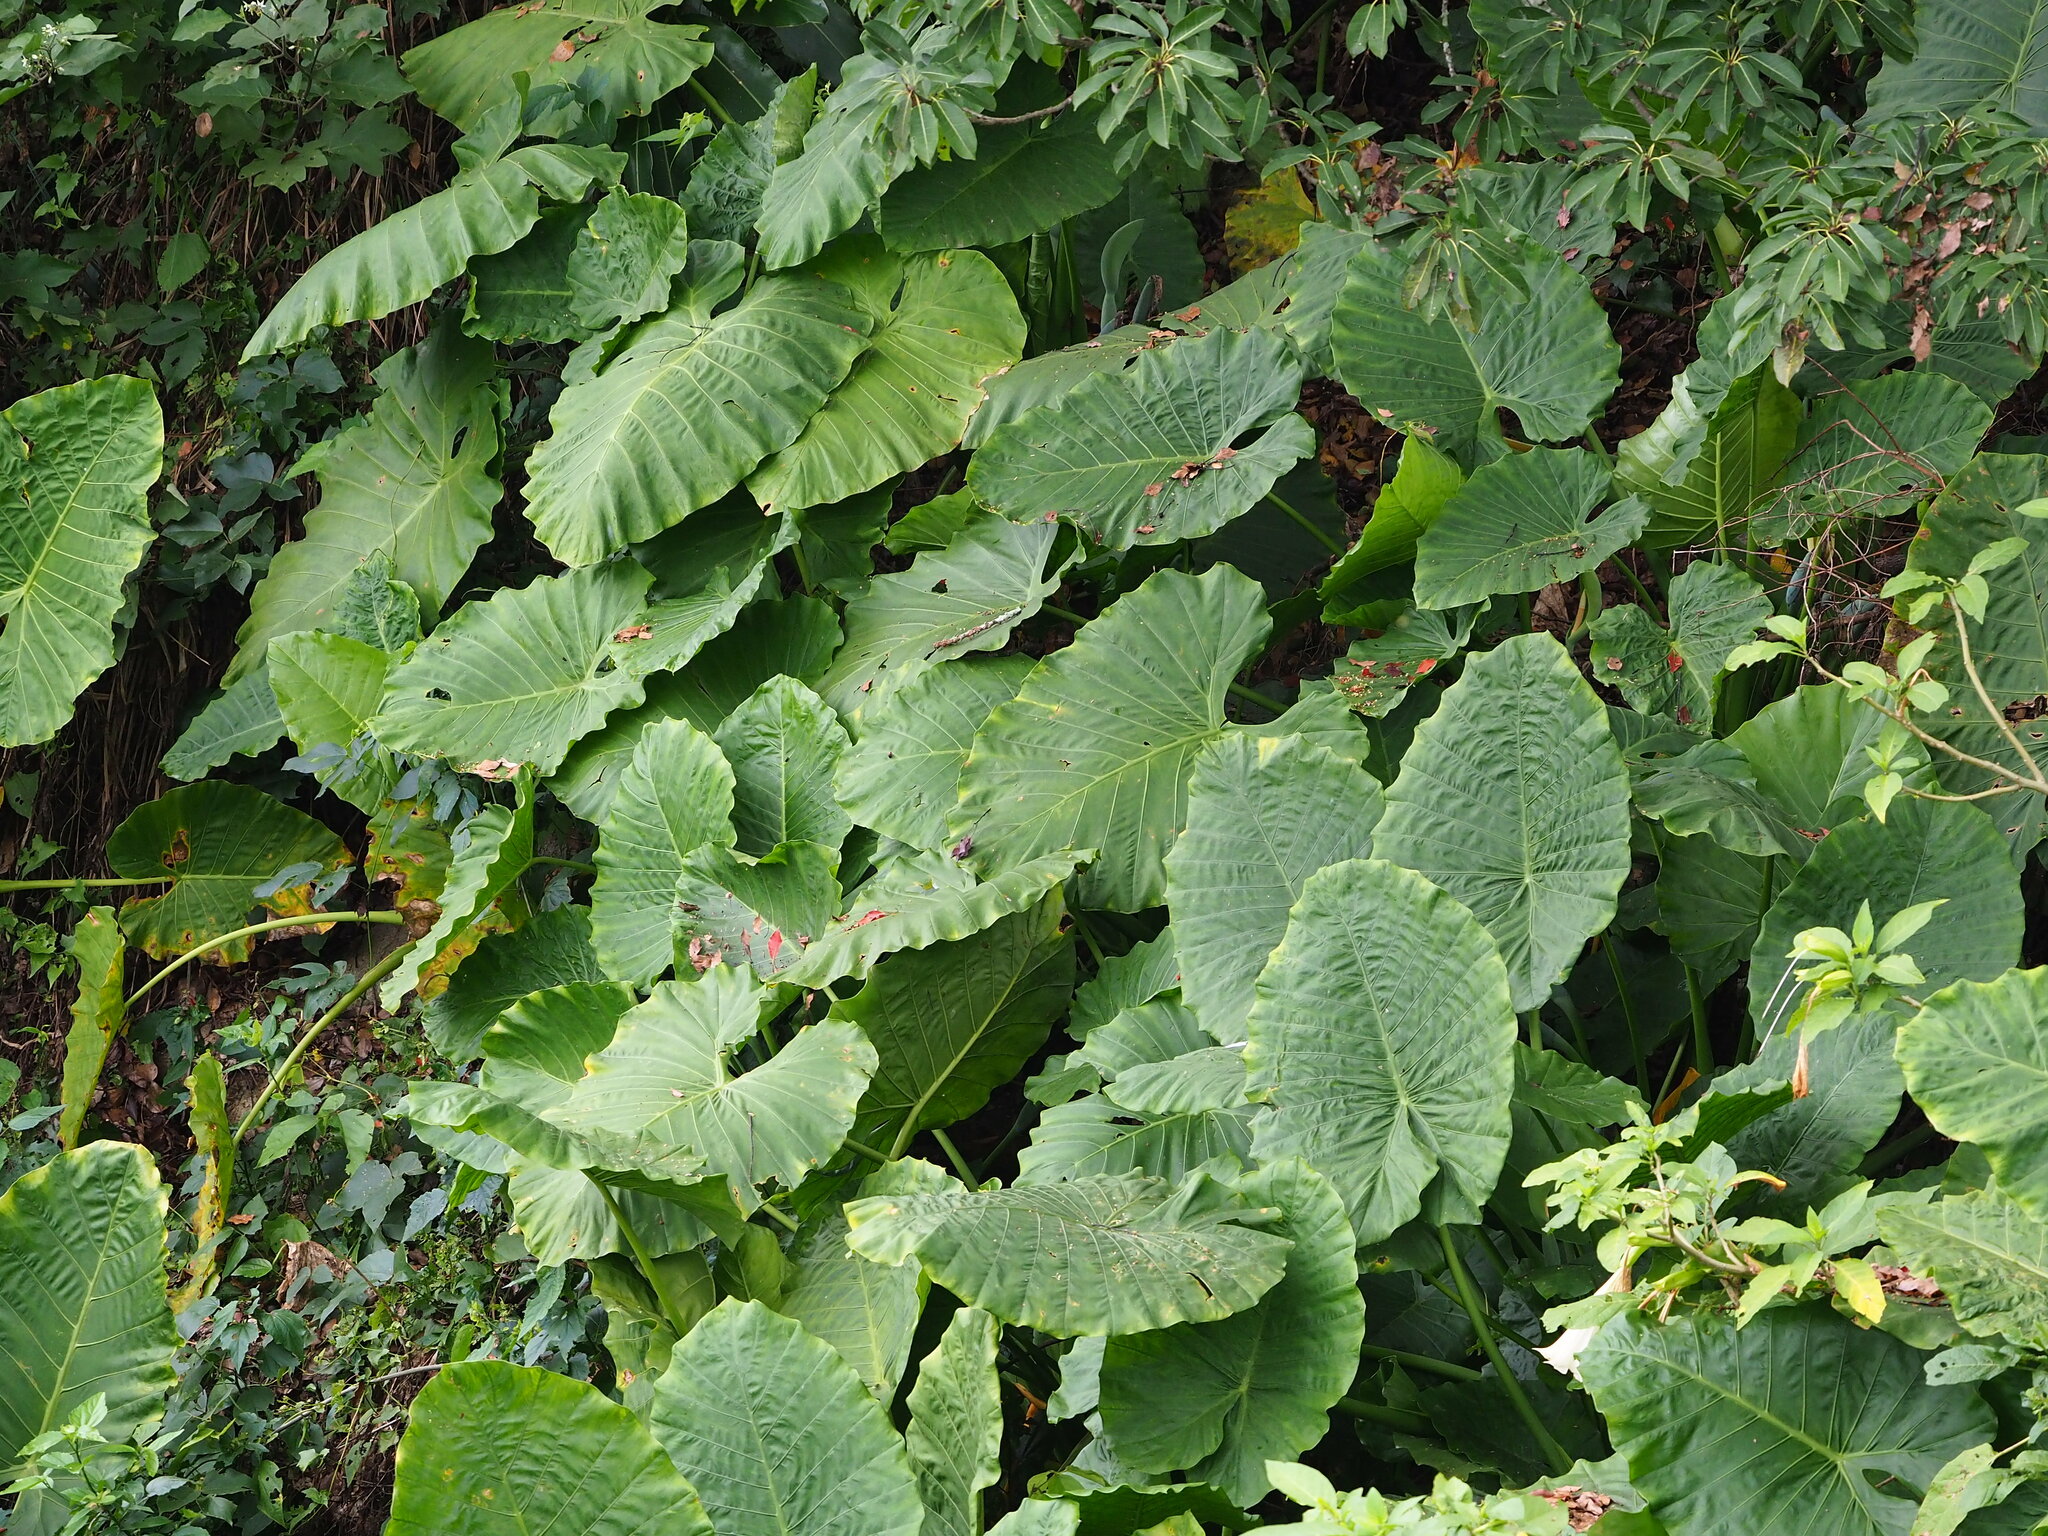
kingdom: Plantae
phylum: Tracheophyta
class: Liliopsida
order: Alismatales
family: Araceae
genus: Alocasia
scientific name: Alocasia odora
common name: Asian taro
